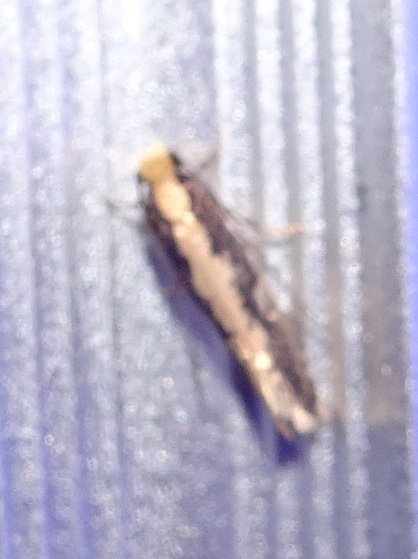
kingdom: Animalia
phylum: Arthropoda
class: Insecta
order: Lepidoptera
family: Tineidae
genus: Monopis
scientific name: Monopis crocicapitella
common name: Moth
